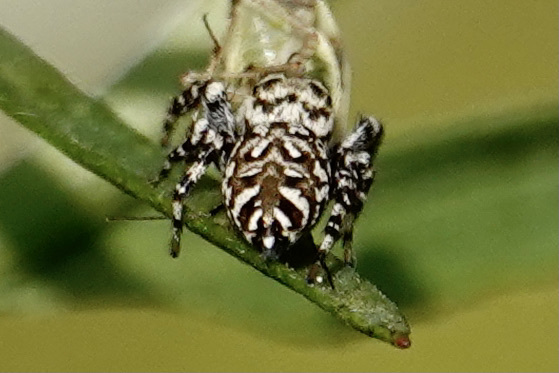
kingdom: Animalia
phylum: Arthropoda
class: Arachnida
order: Araneae
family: Salticidae
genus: Pelegrina
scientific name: Pelegrina galathea
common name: Jumping spiders
